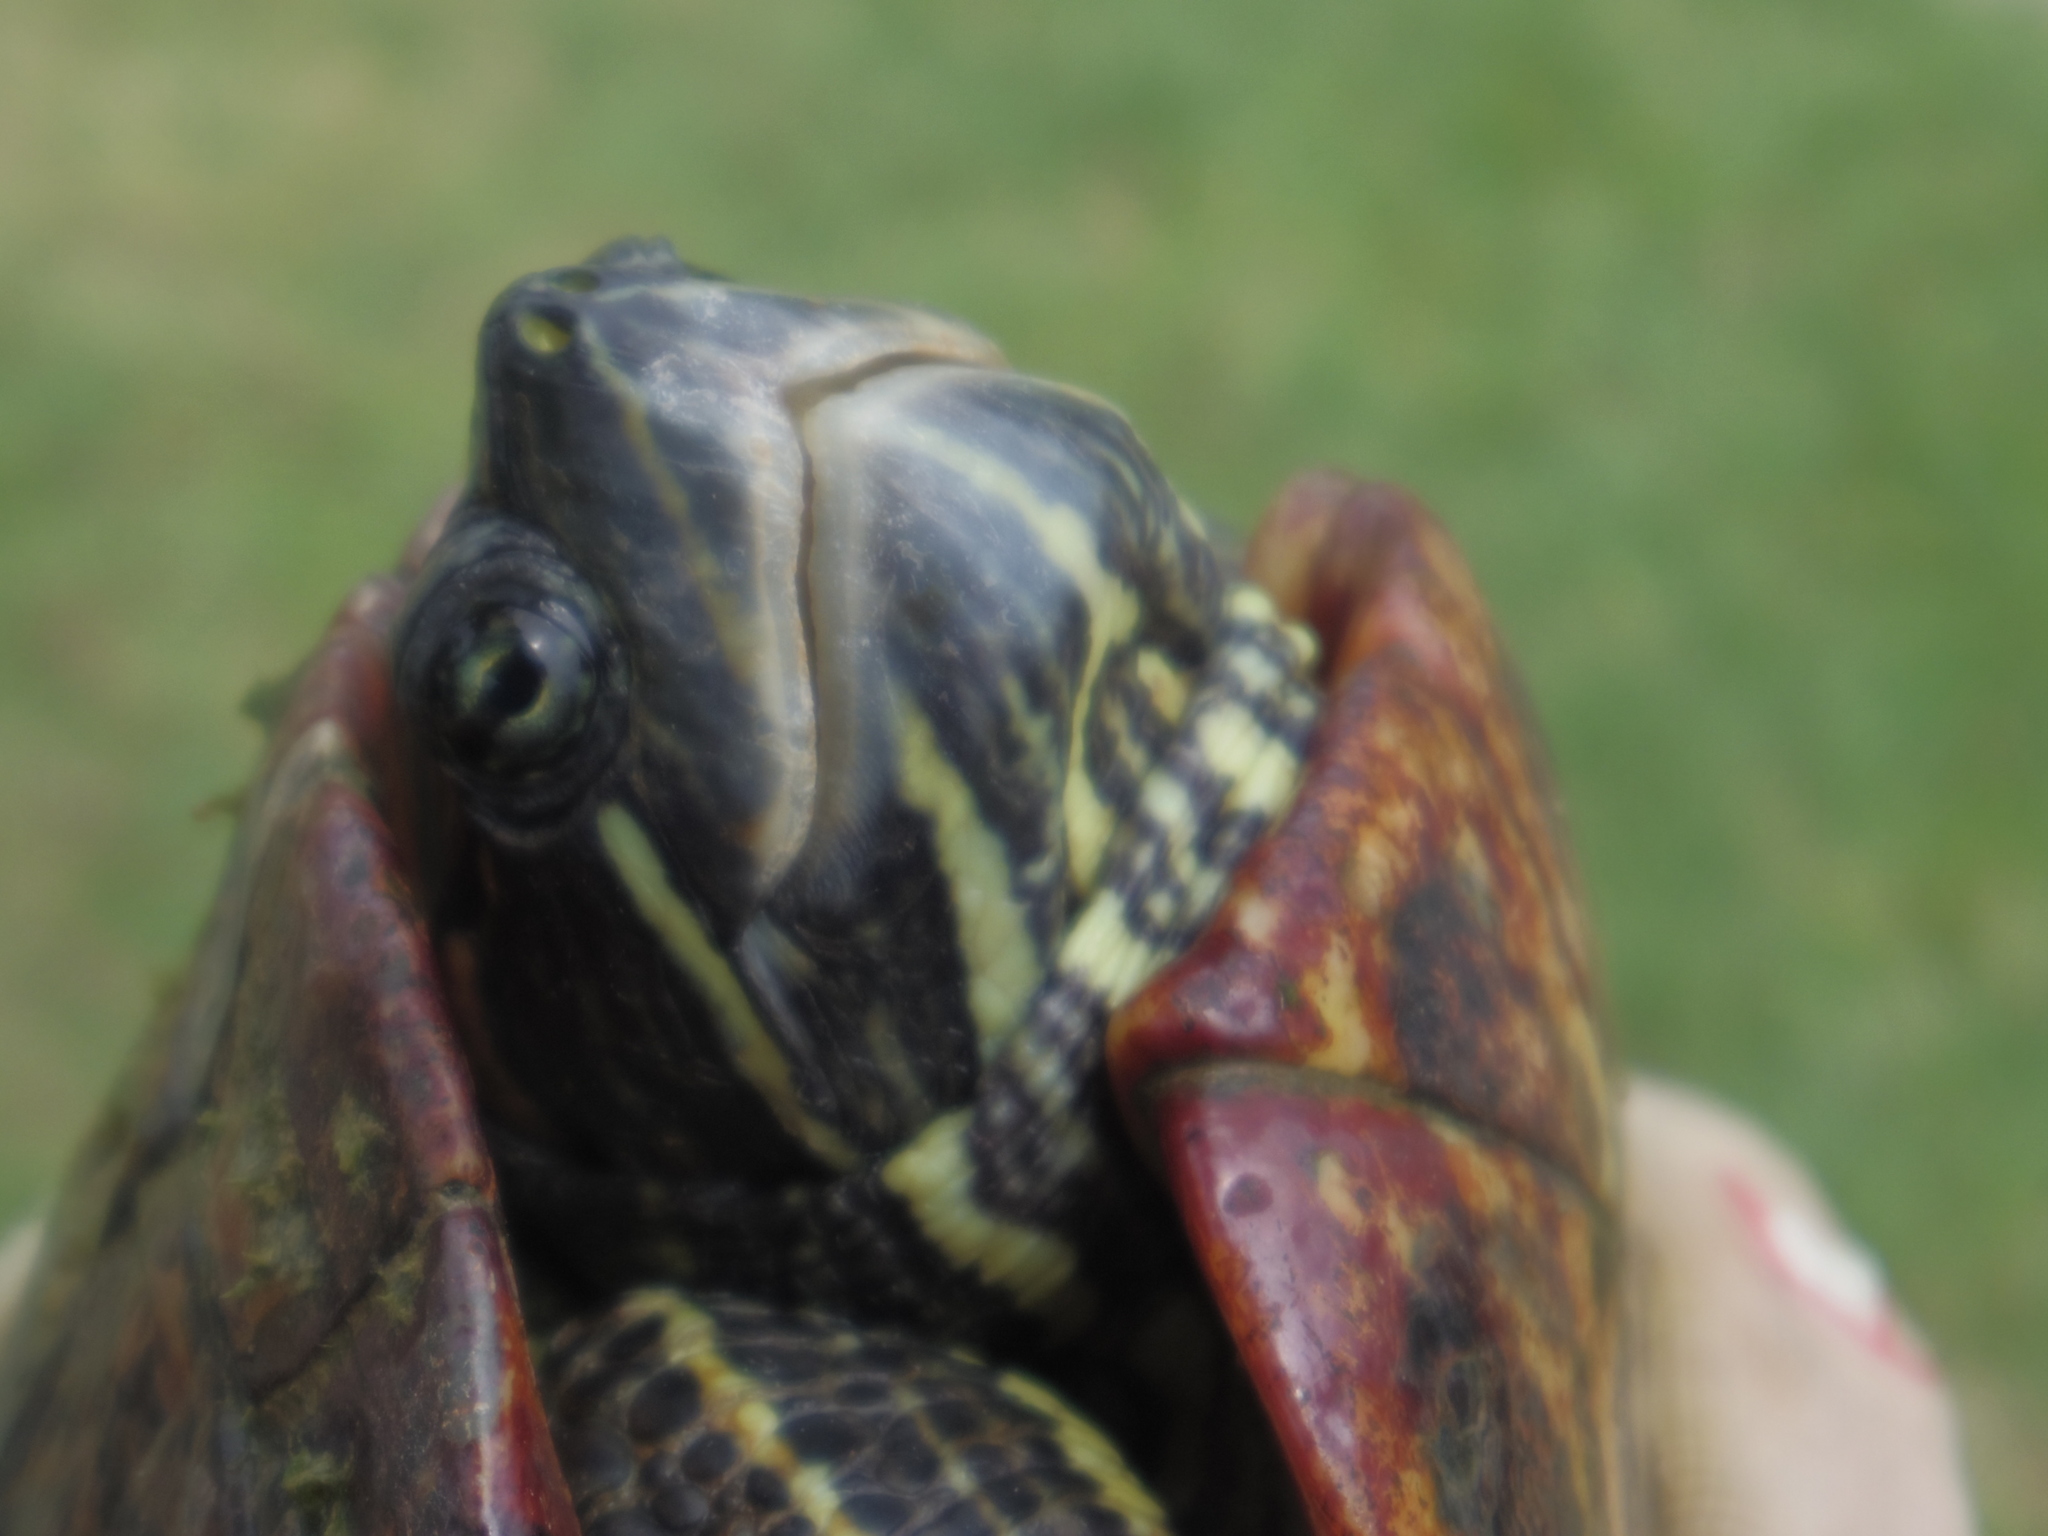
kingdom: Animalia
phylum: Chordata
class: Testudines
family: Emydidae
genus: Trachemys
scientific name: Trachemys scripta
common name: Slider
